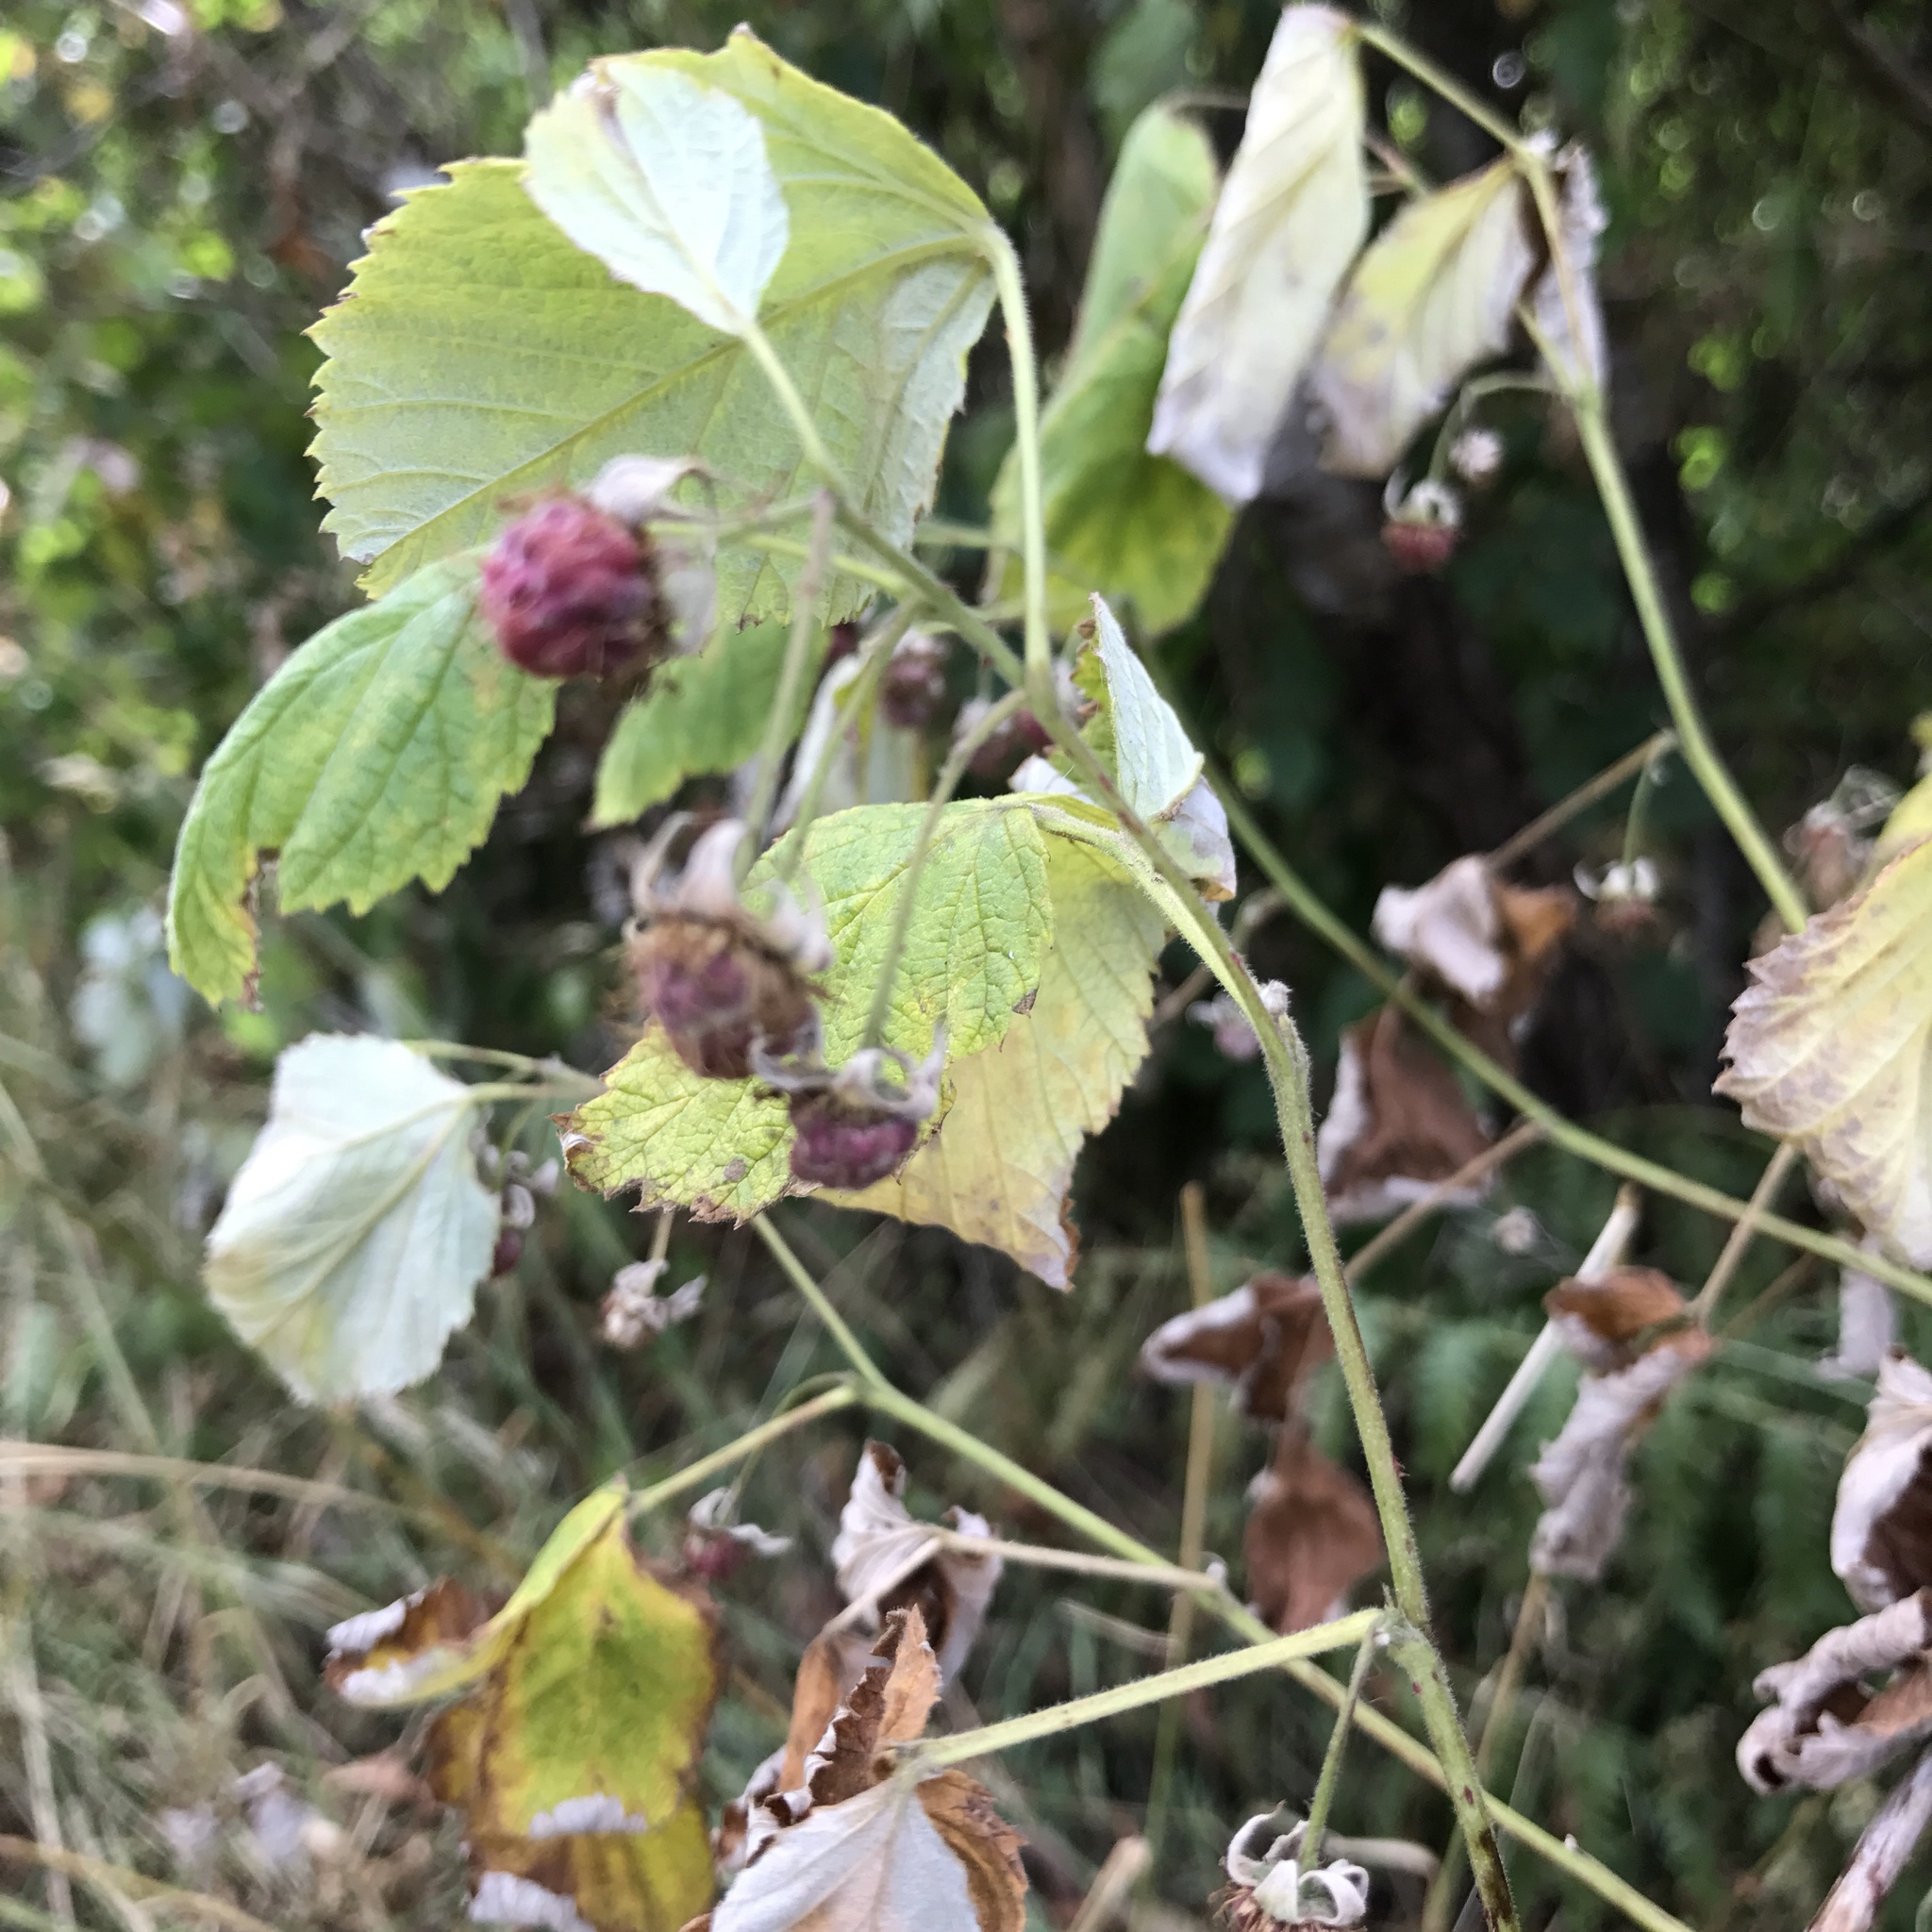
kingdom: Plantae
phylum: Tracheophyta
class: Magnoliopsida
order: Rosales
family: Rosaceae
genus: Rubus
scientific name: Rubus idaeus
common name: Raspberry
